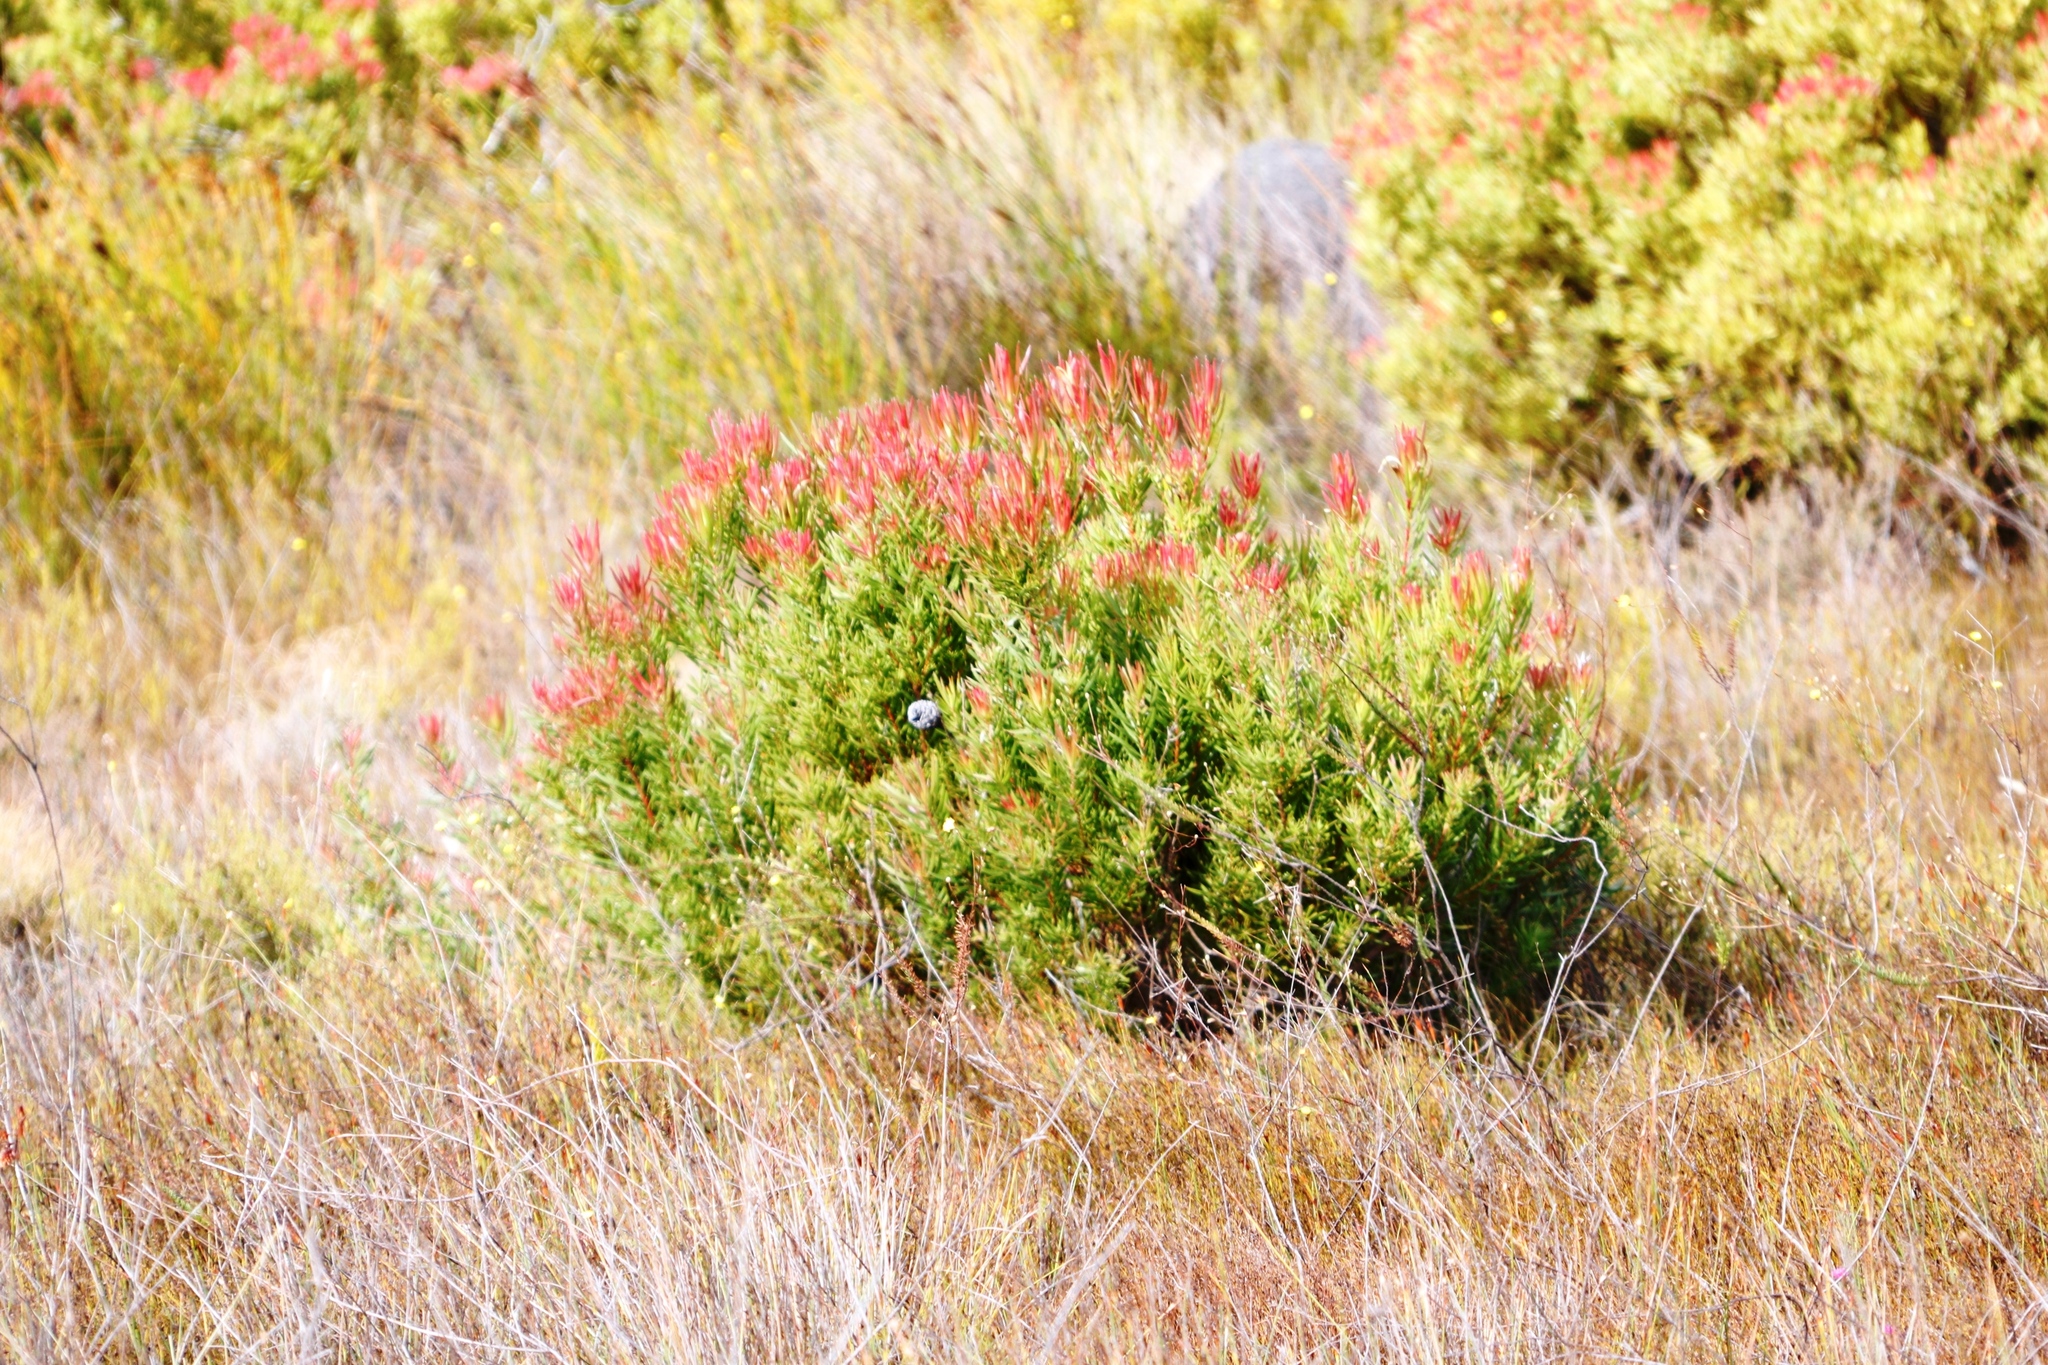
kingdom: Plantae
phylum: Tracheophyta
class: Magnoliopsida
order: Proteales
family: Proteaceae
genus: Leucadendron
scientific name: Leucadendron spissifolium
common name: Spear-leaf conebush
